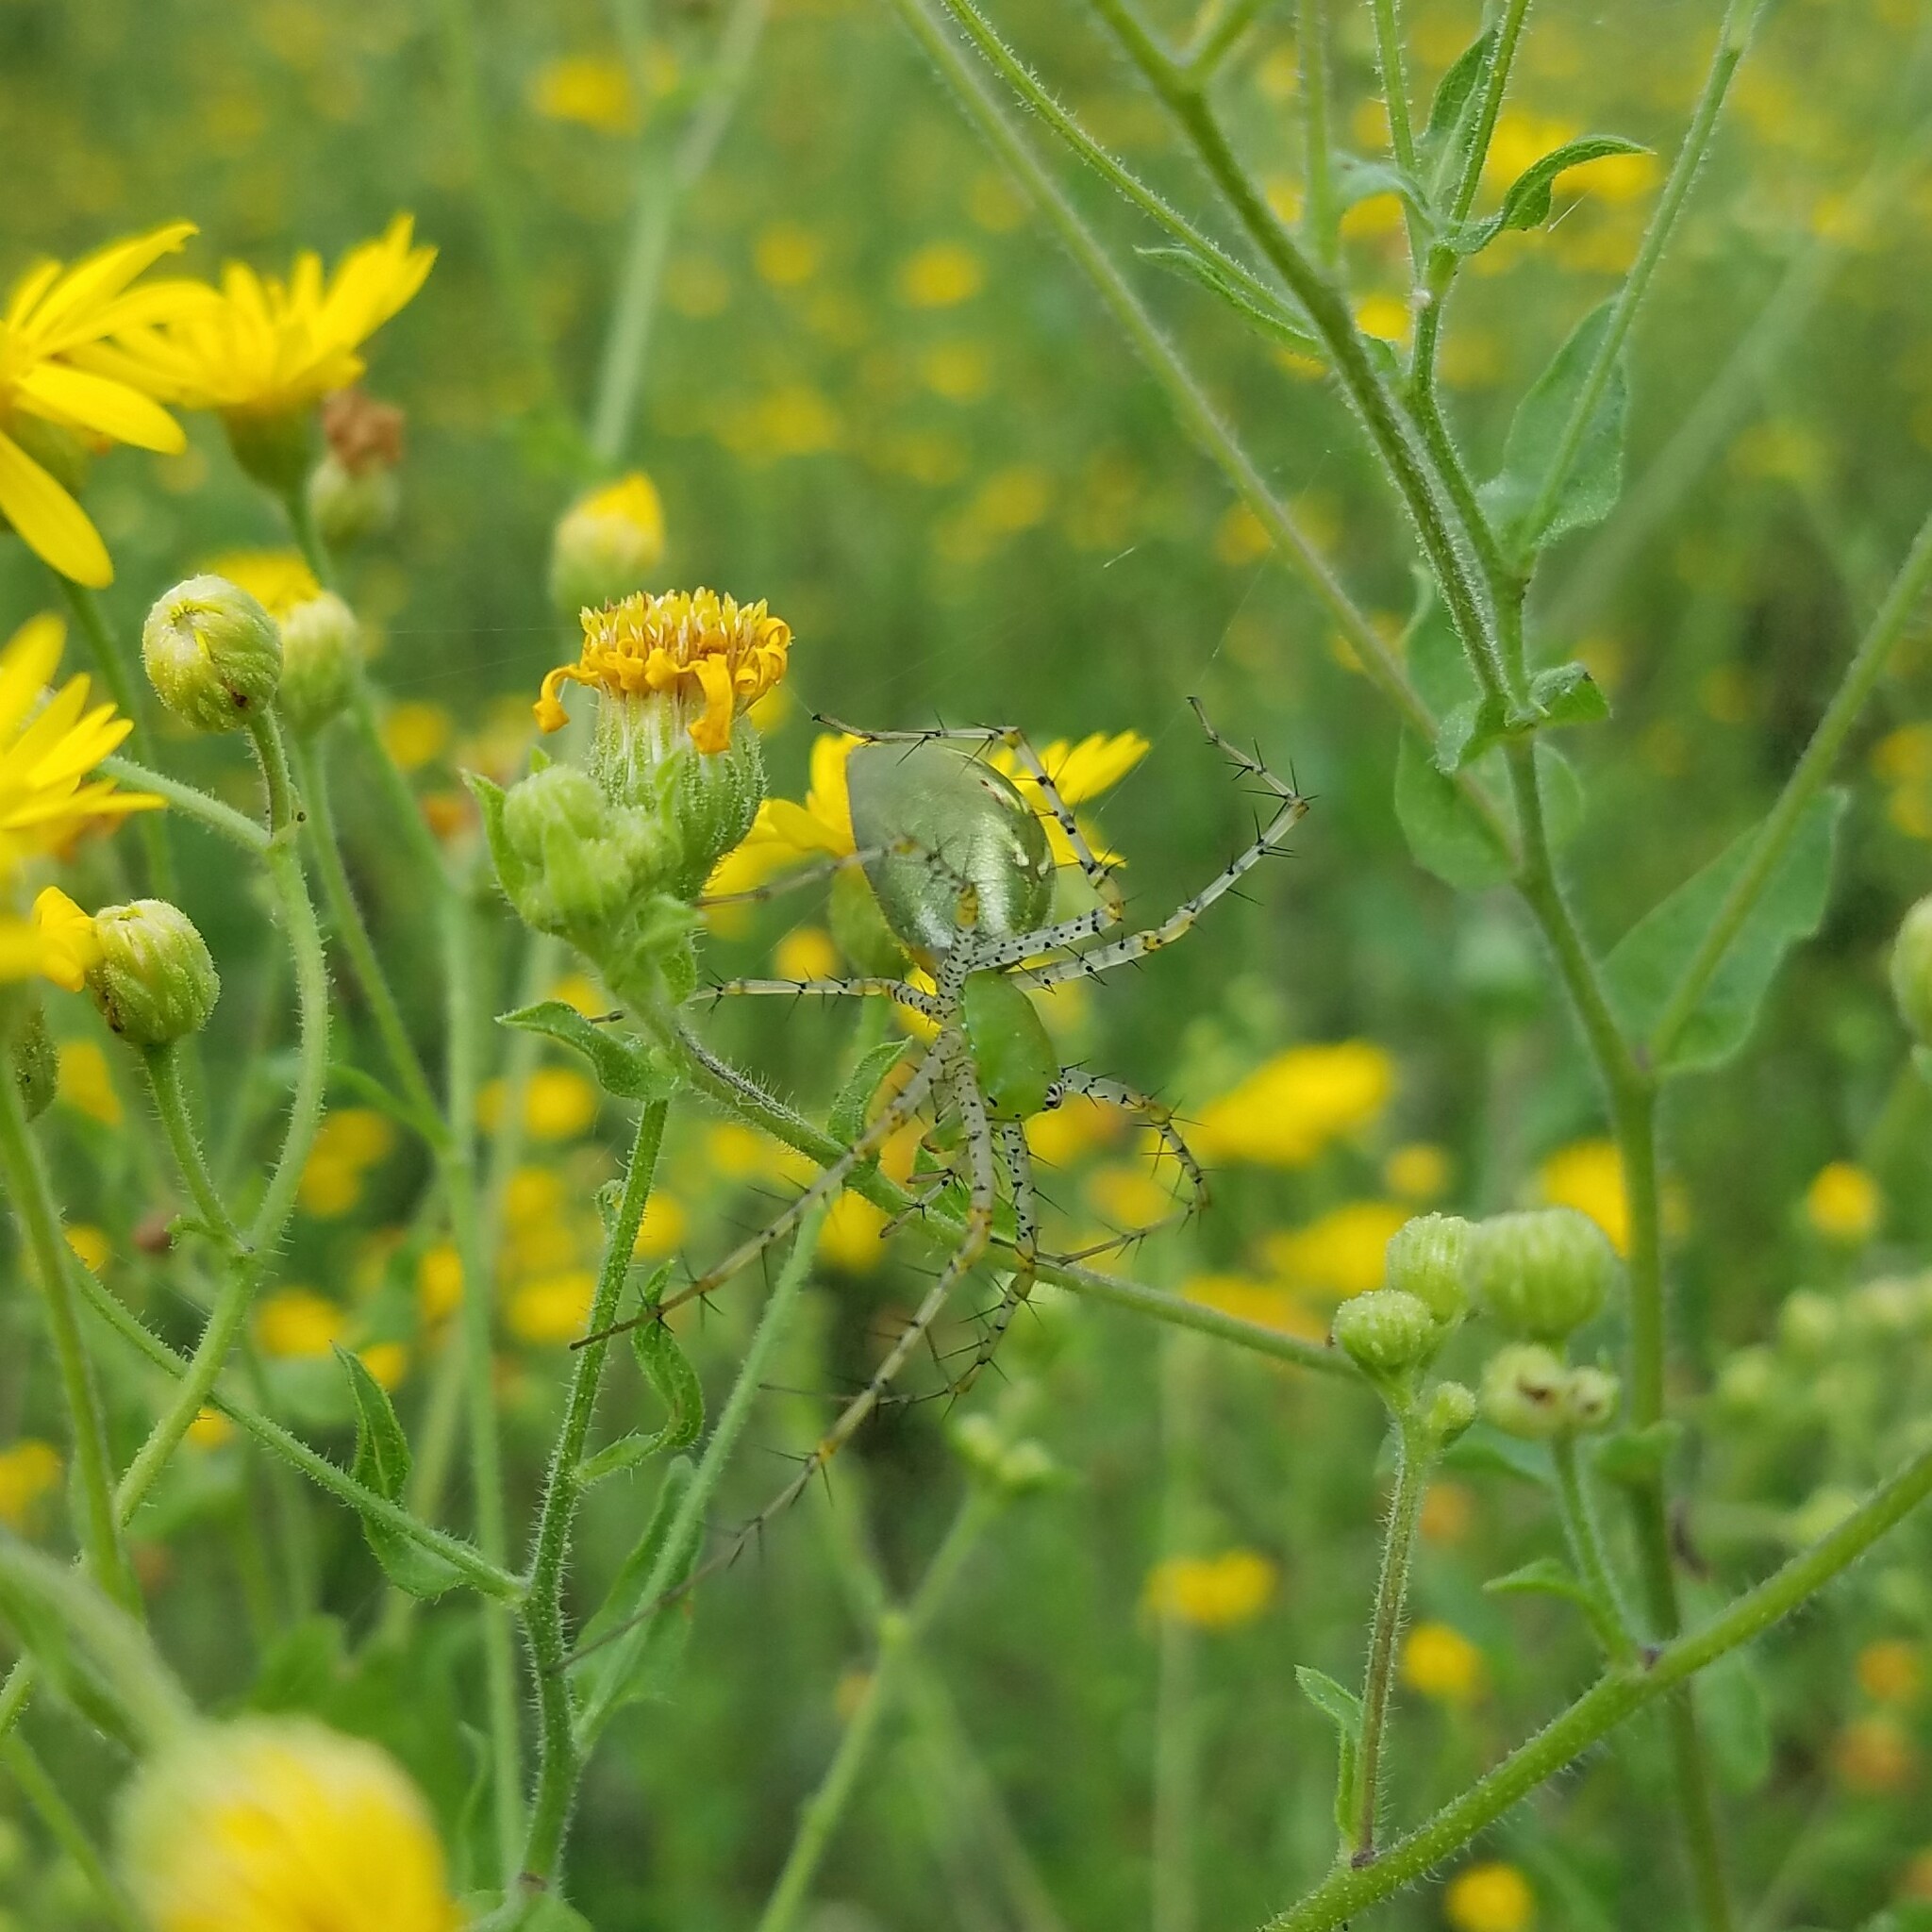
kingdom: Animalia
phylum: Arthropoda
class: Arachnida
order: Araneae
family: Oxyopidae
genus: Peucetia
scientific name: Peucetia viridans
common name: Lynx spiders
